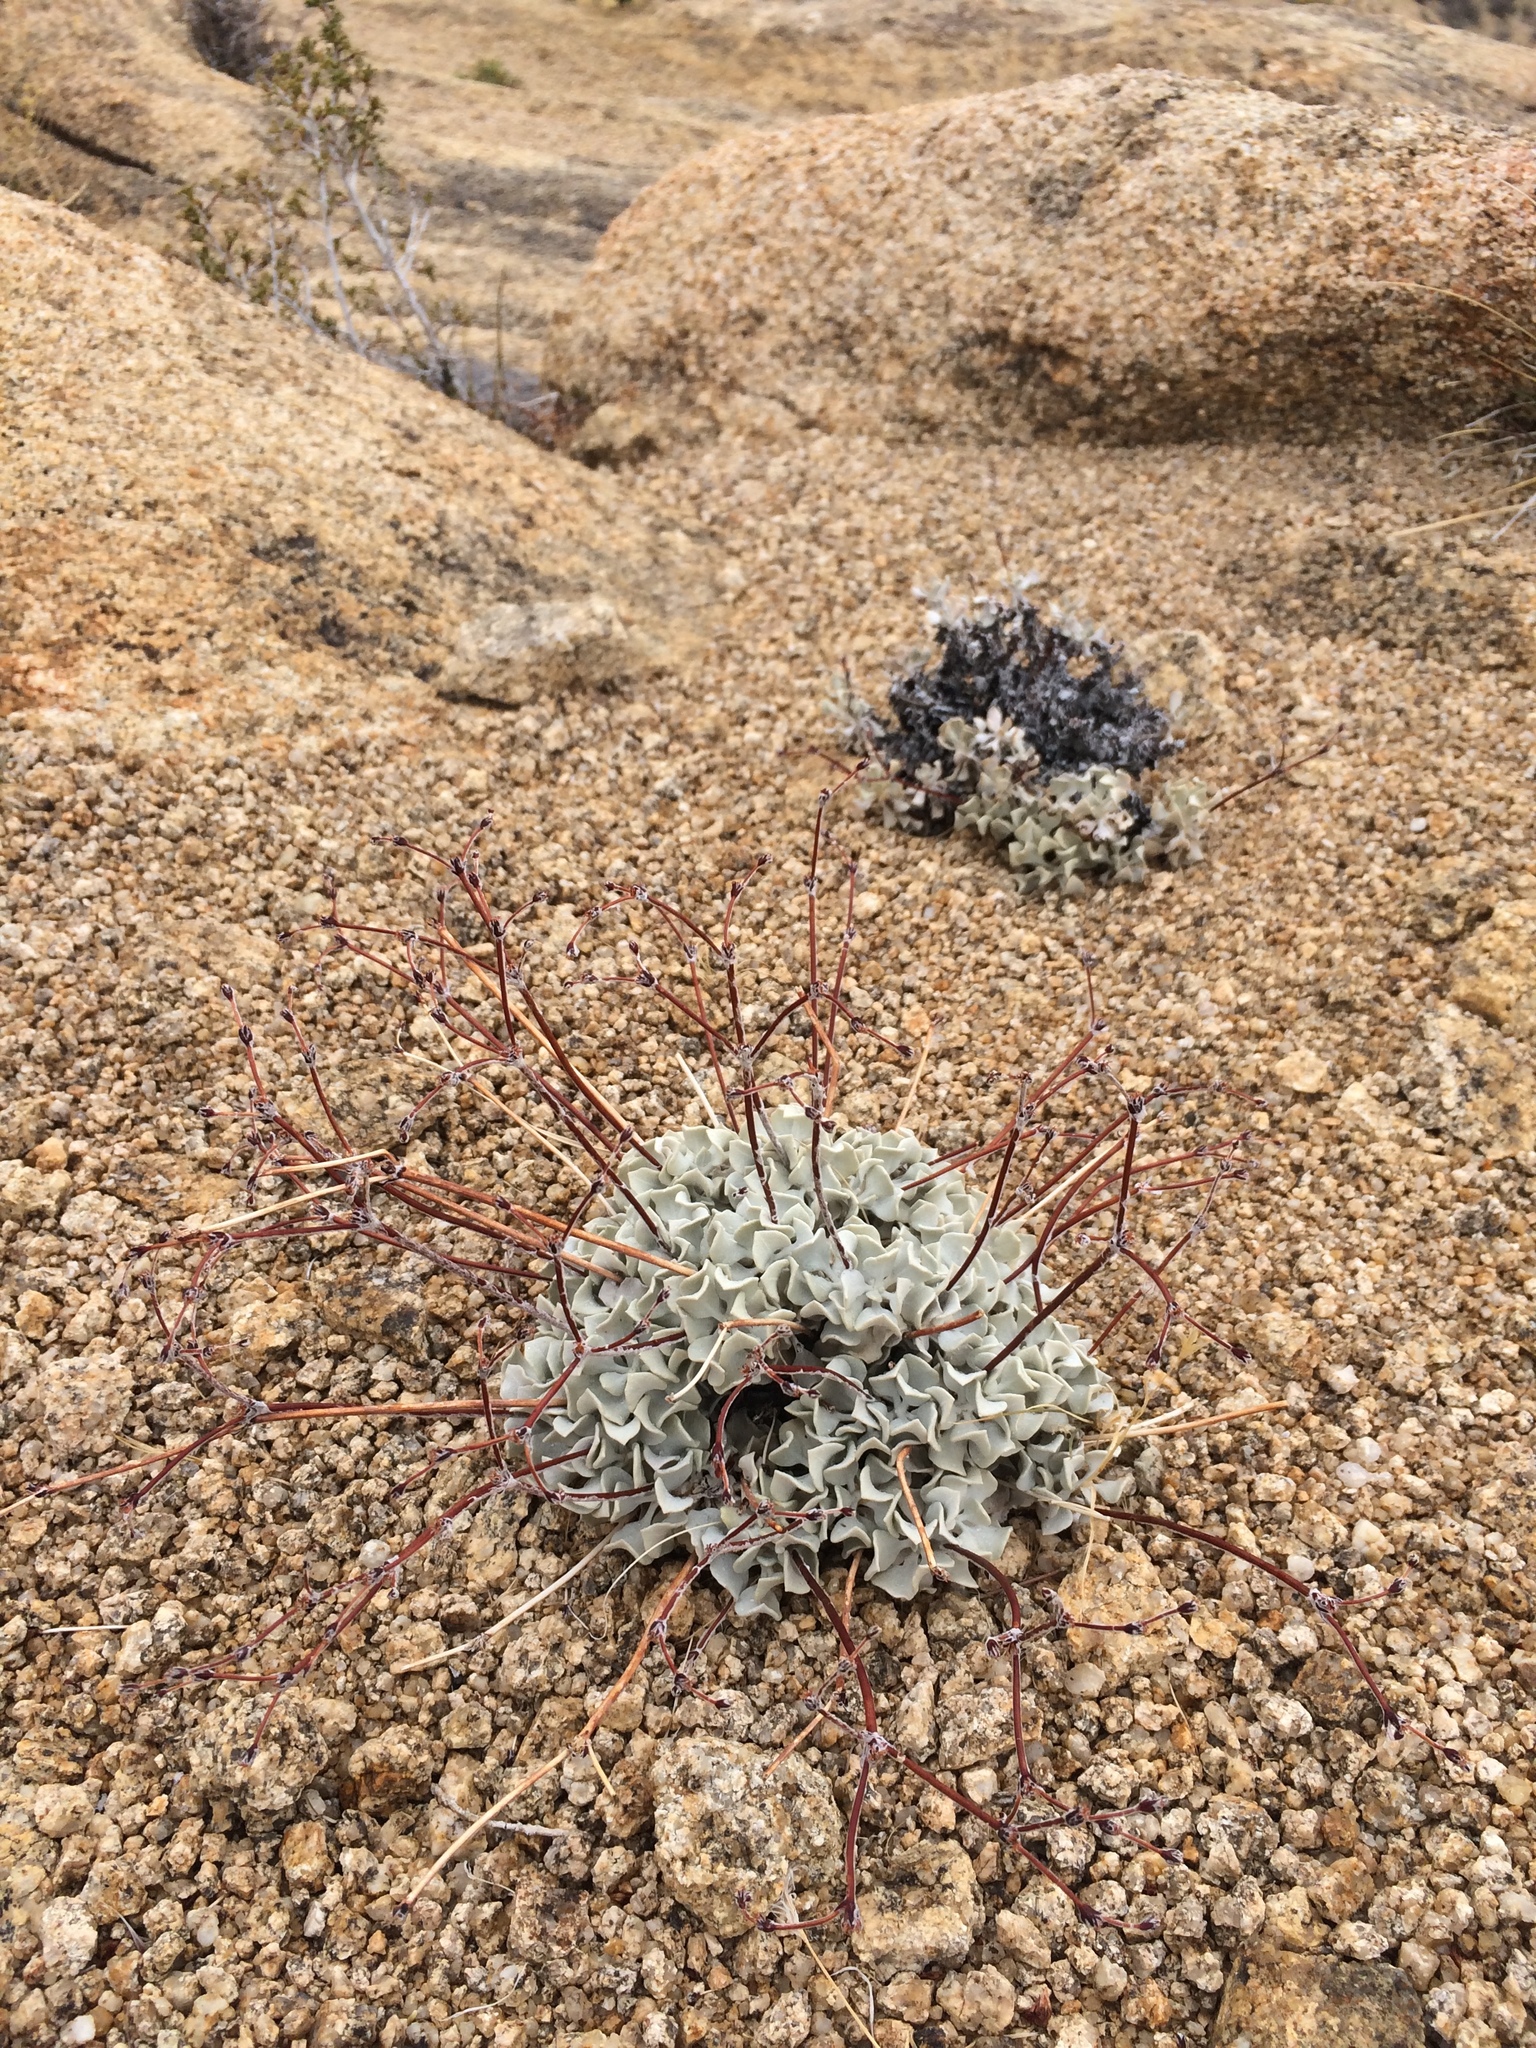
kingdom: Plantae
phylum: Tracheophyta
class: Magnoliopsida
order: Caryophyllales
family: Polygonaceae
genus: Eriogonum
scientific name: Eriogonum saxatile
